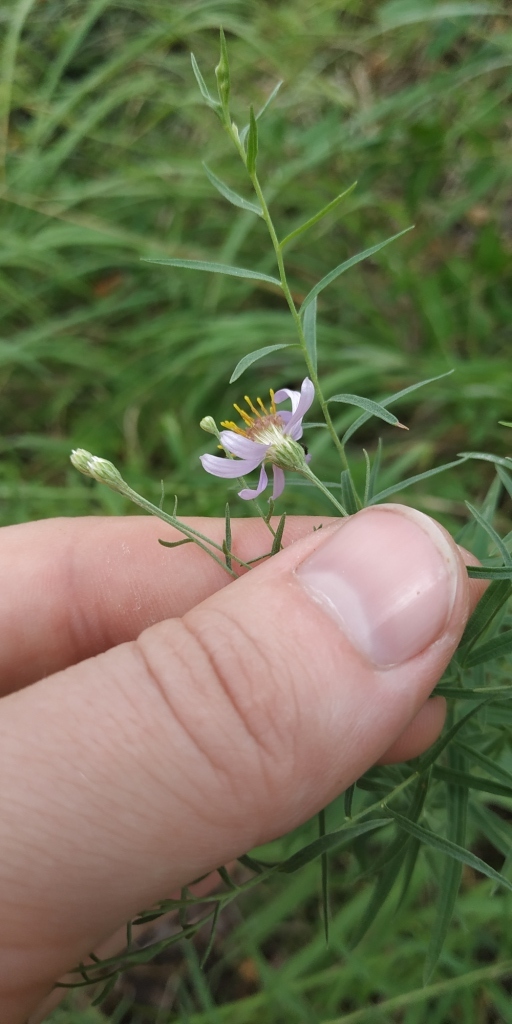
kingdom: Plantae
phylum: Tracheophyta
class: Magnoliopsida
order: Asterales
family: Asteraceae
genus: Galatella
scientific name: Galatella angustissima
